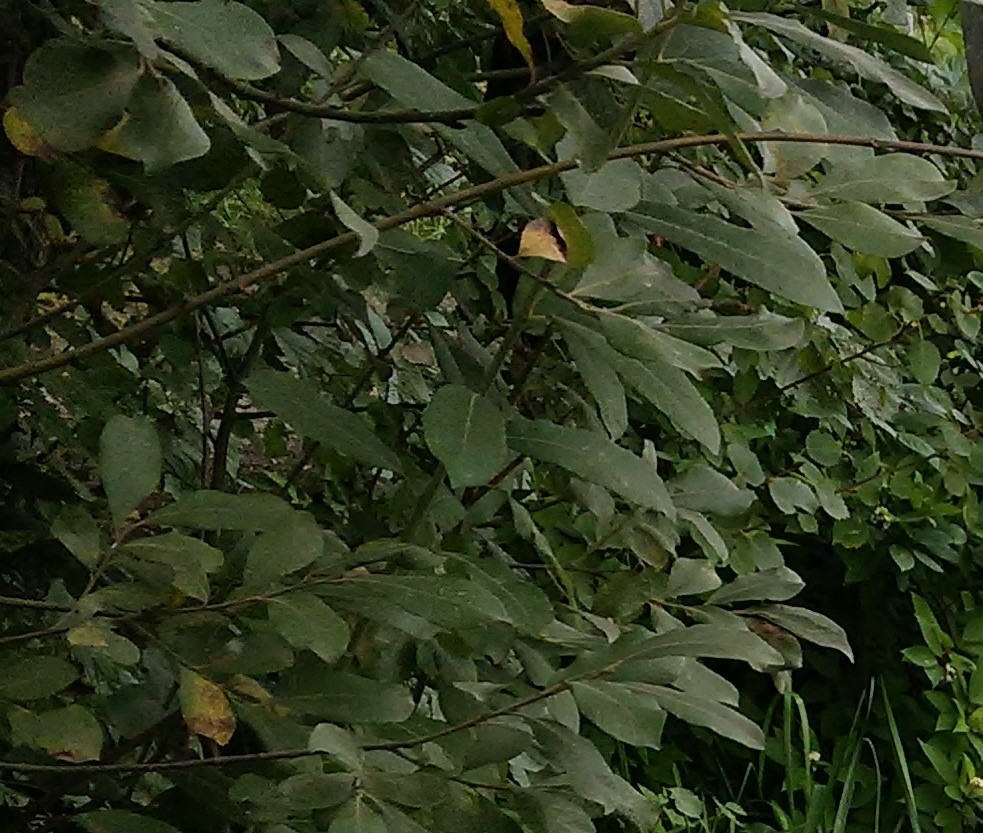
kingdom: Plantae
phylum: Tracheophyta
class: Magnoliopsida
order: Malpighiales
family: Salicaceae
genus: Salix
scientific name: Salix caprea
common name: Goat willow
